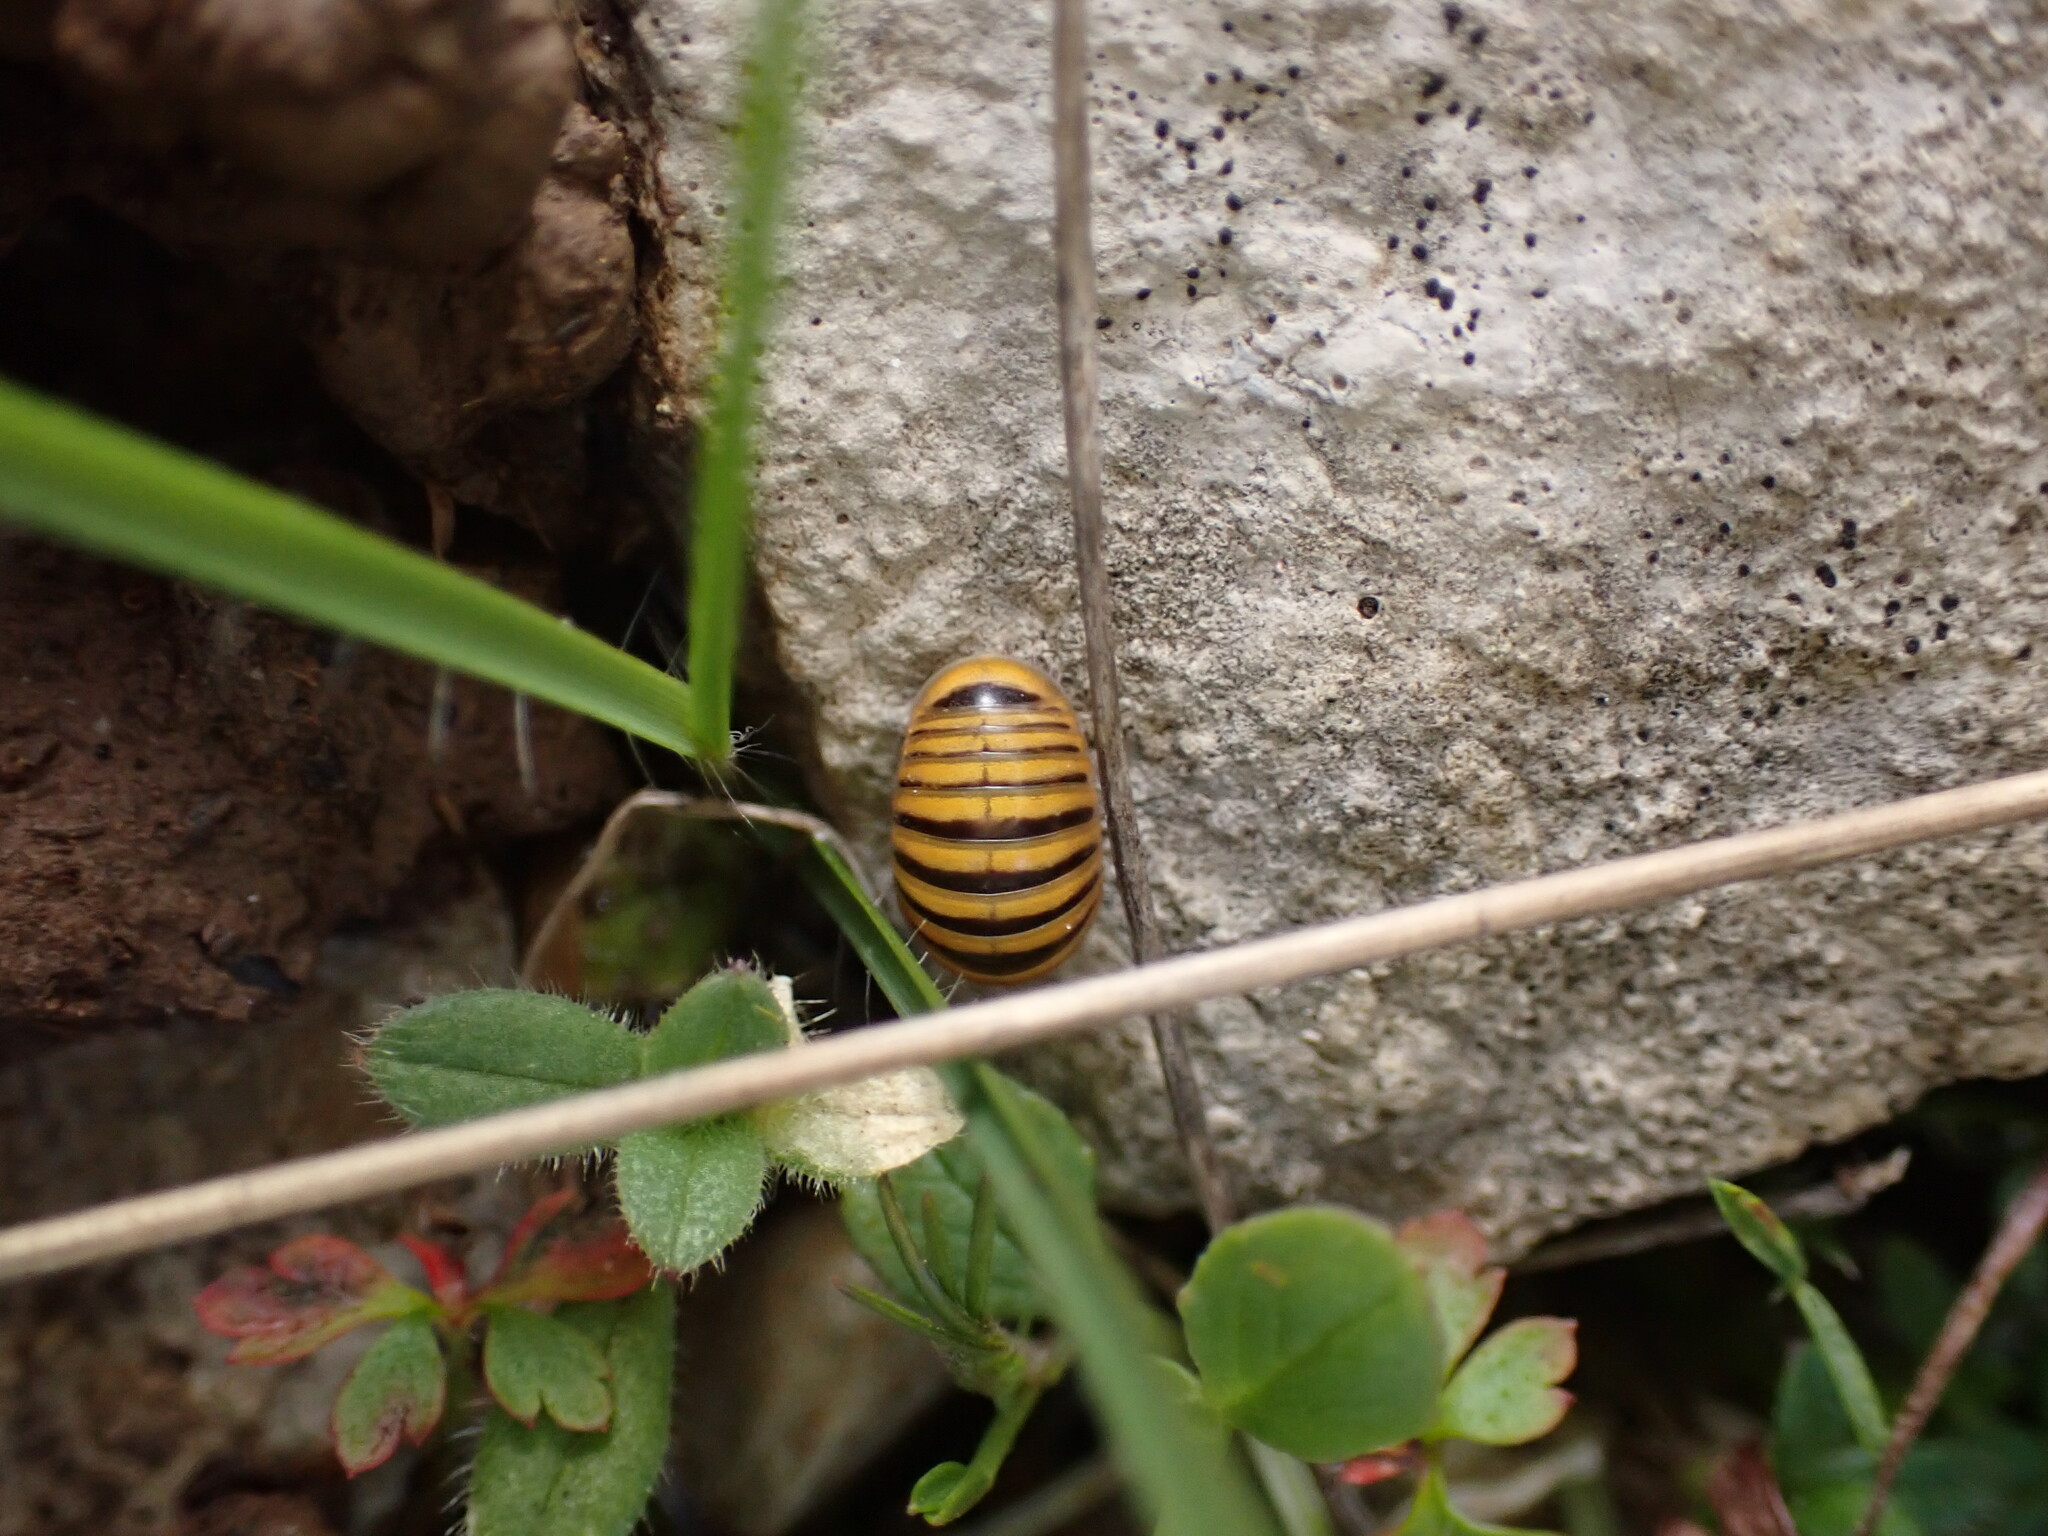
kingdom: Animalia
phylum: Arthropoda
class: Diplopoda
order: Glomerida
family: Glomeridae
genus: Glomeris
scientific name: Glomeris annulata
